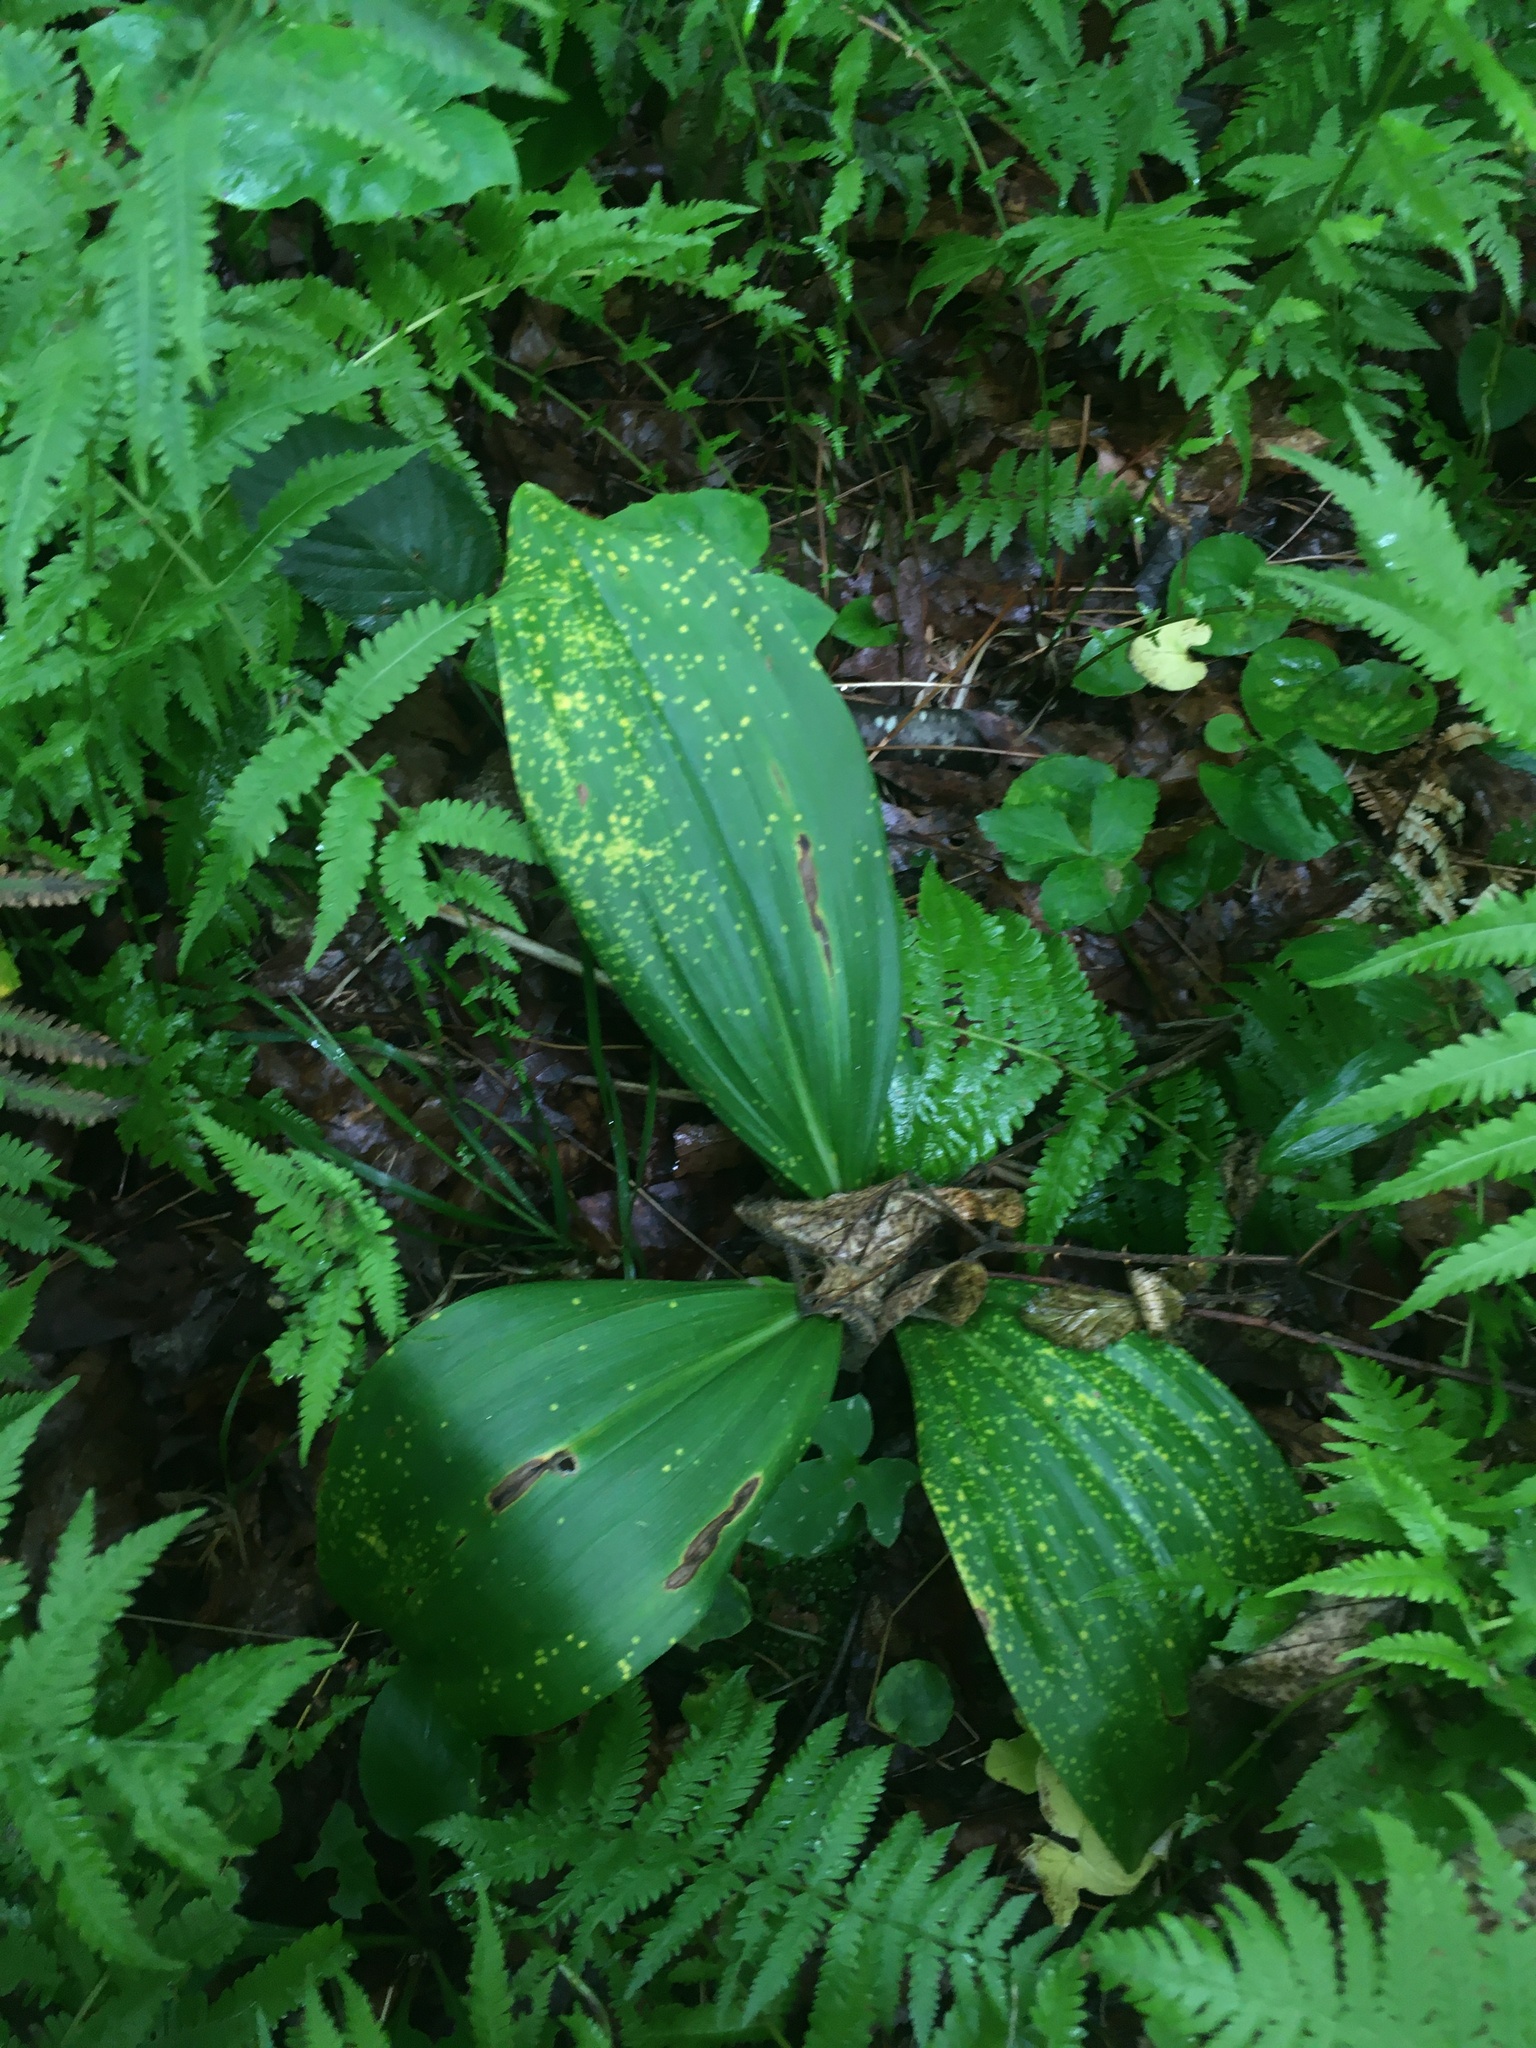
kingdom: Plantae
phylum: Tracheophyta
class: Liliopsida
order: Liliales
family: Melanthiaceae
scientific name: Melanthiaceae
